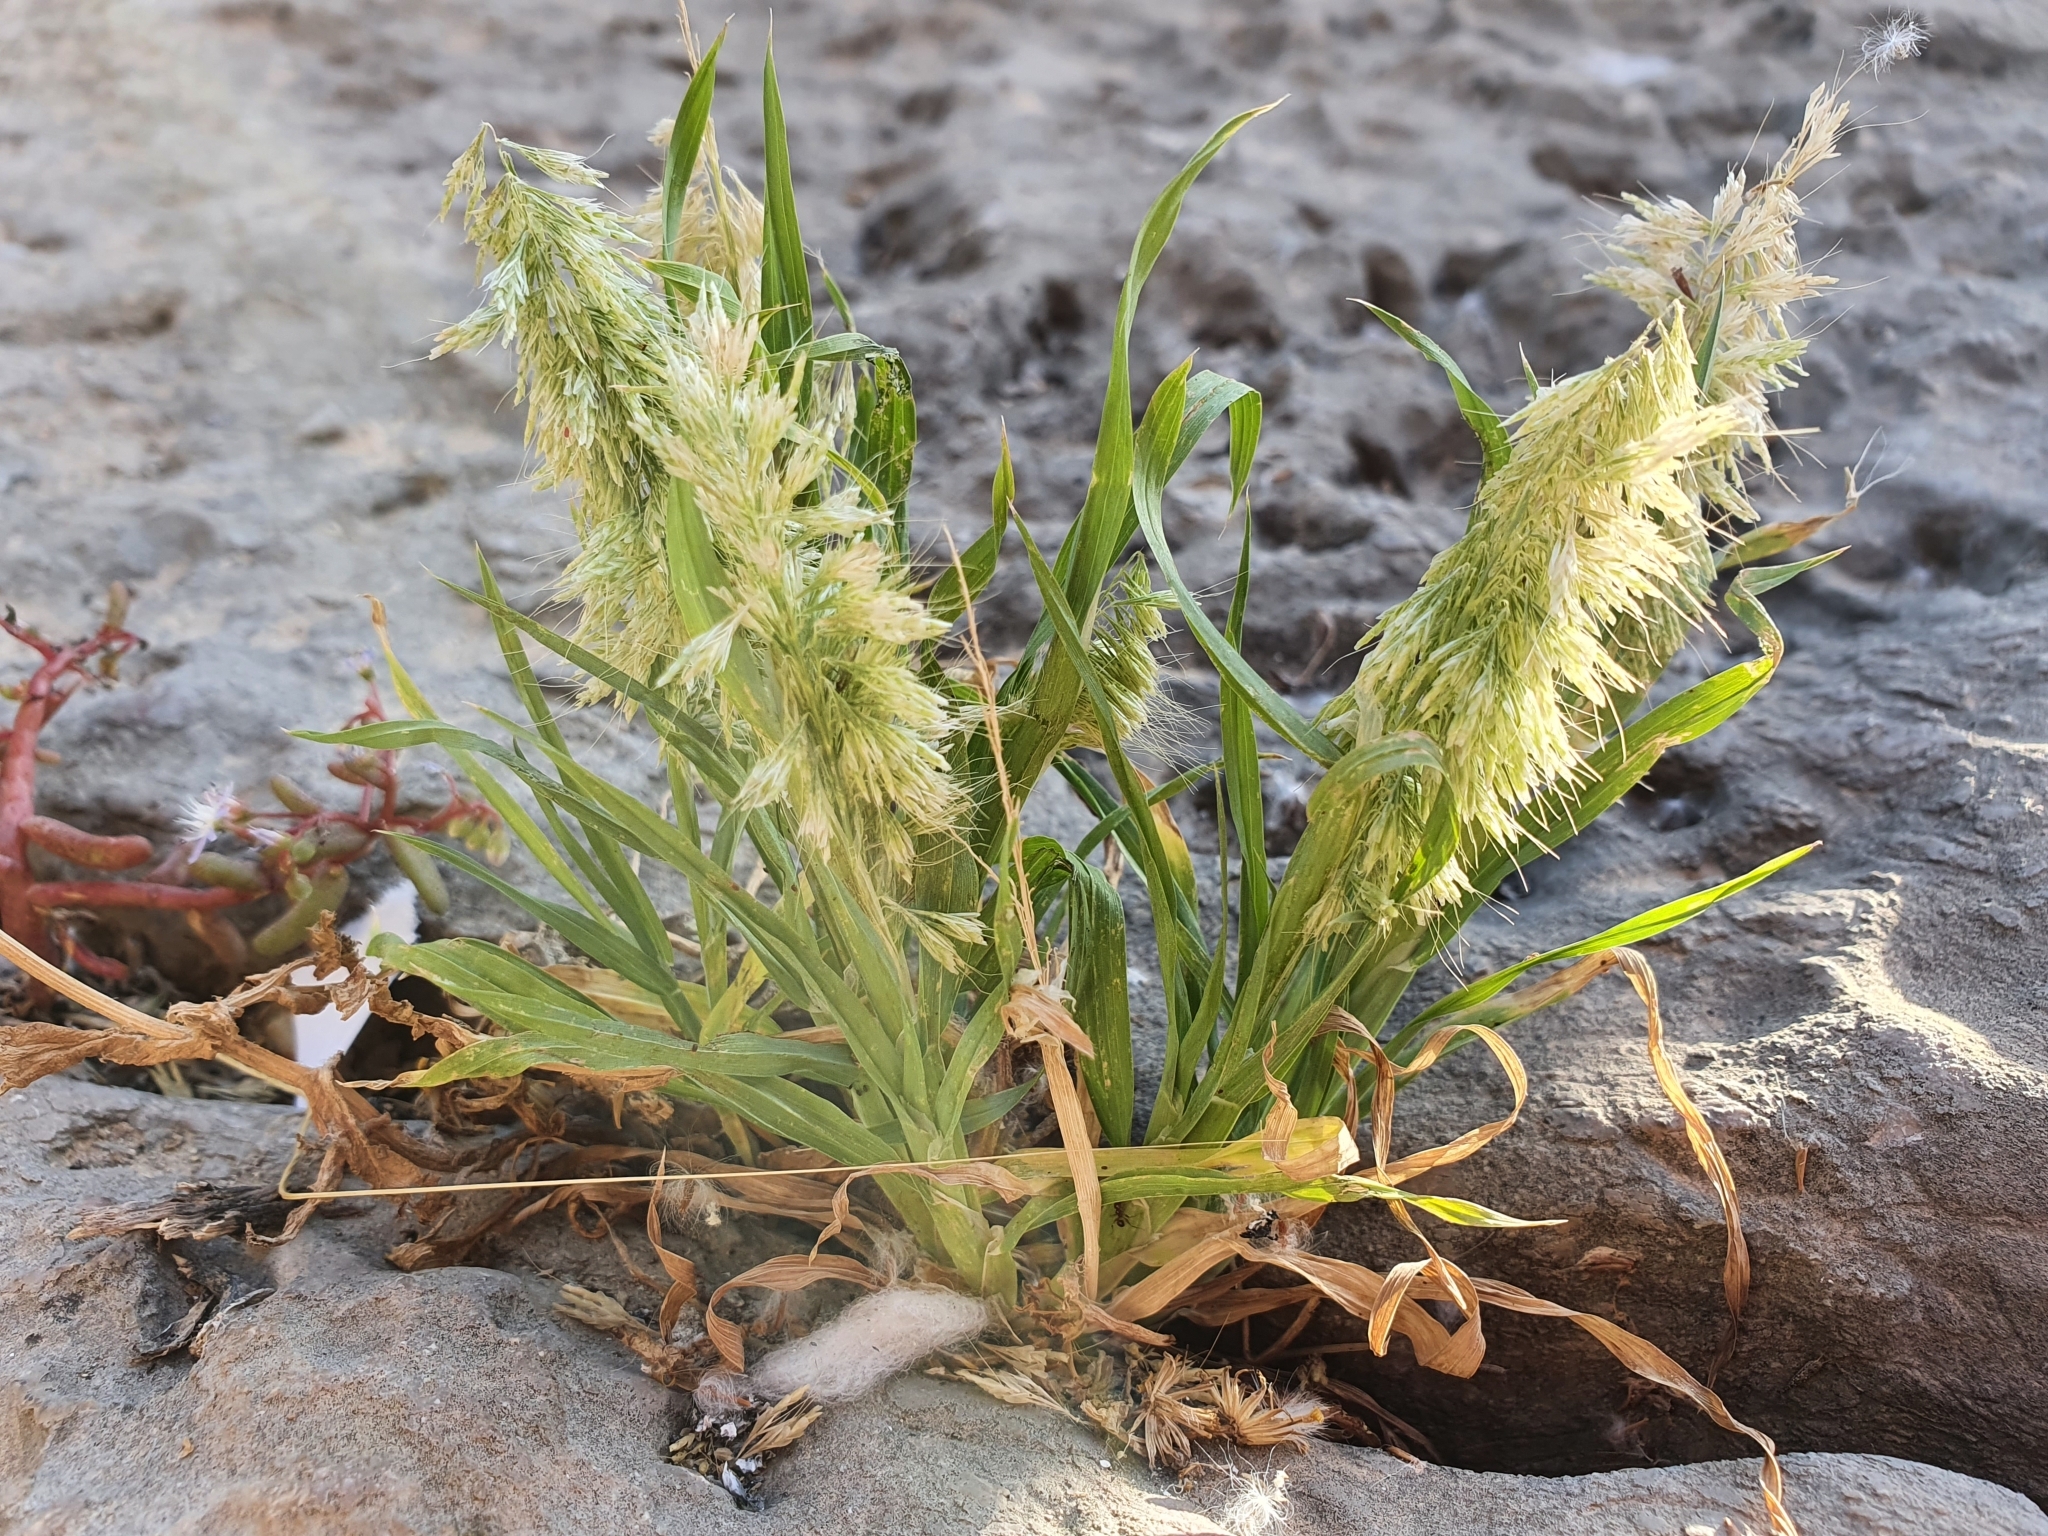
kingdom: Plantae
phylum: Tracheophyta
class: Liliopsida
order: Poales
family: Poaceae
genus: Lamarckia
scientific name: Lamarckia aurea
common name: Golden dog's-tail
